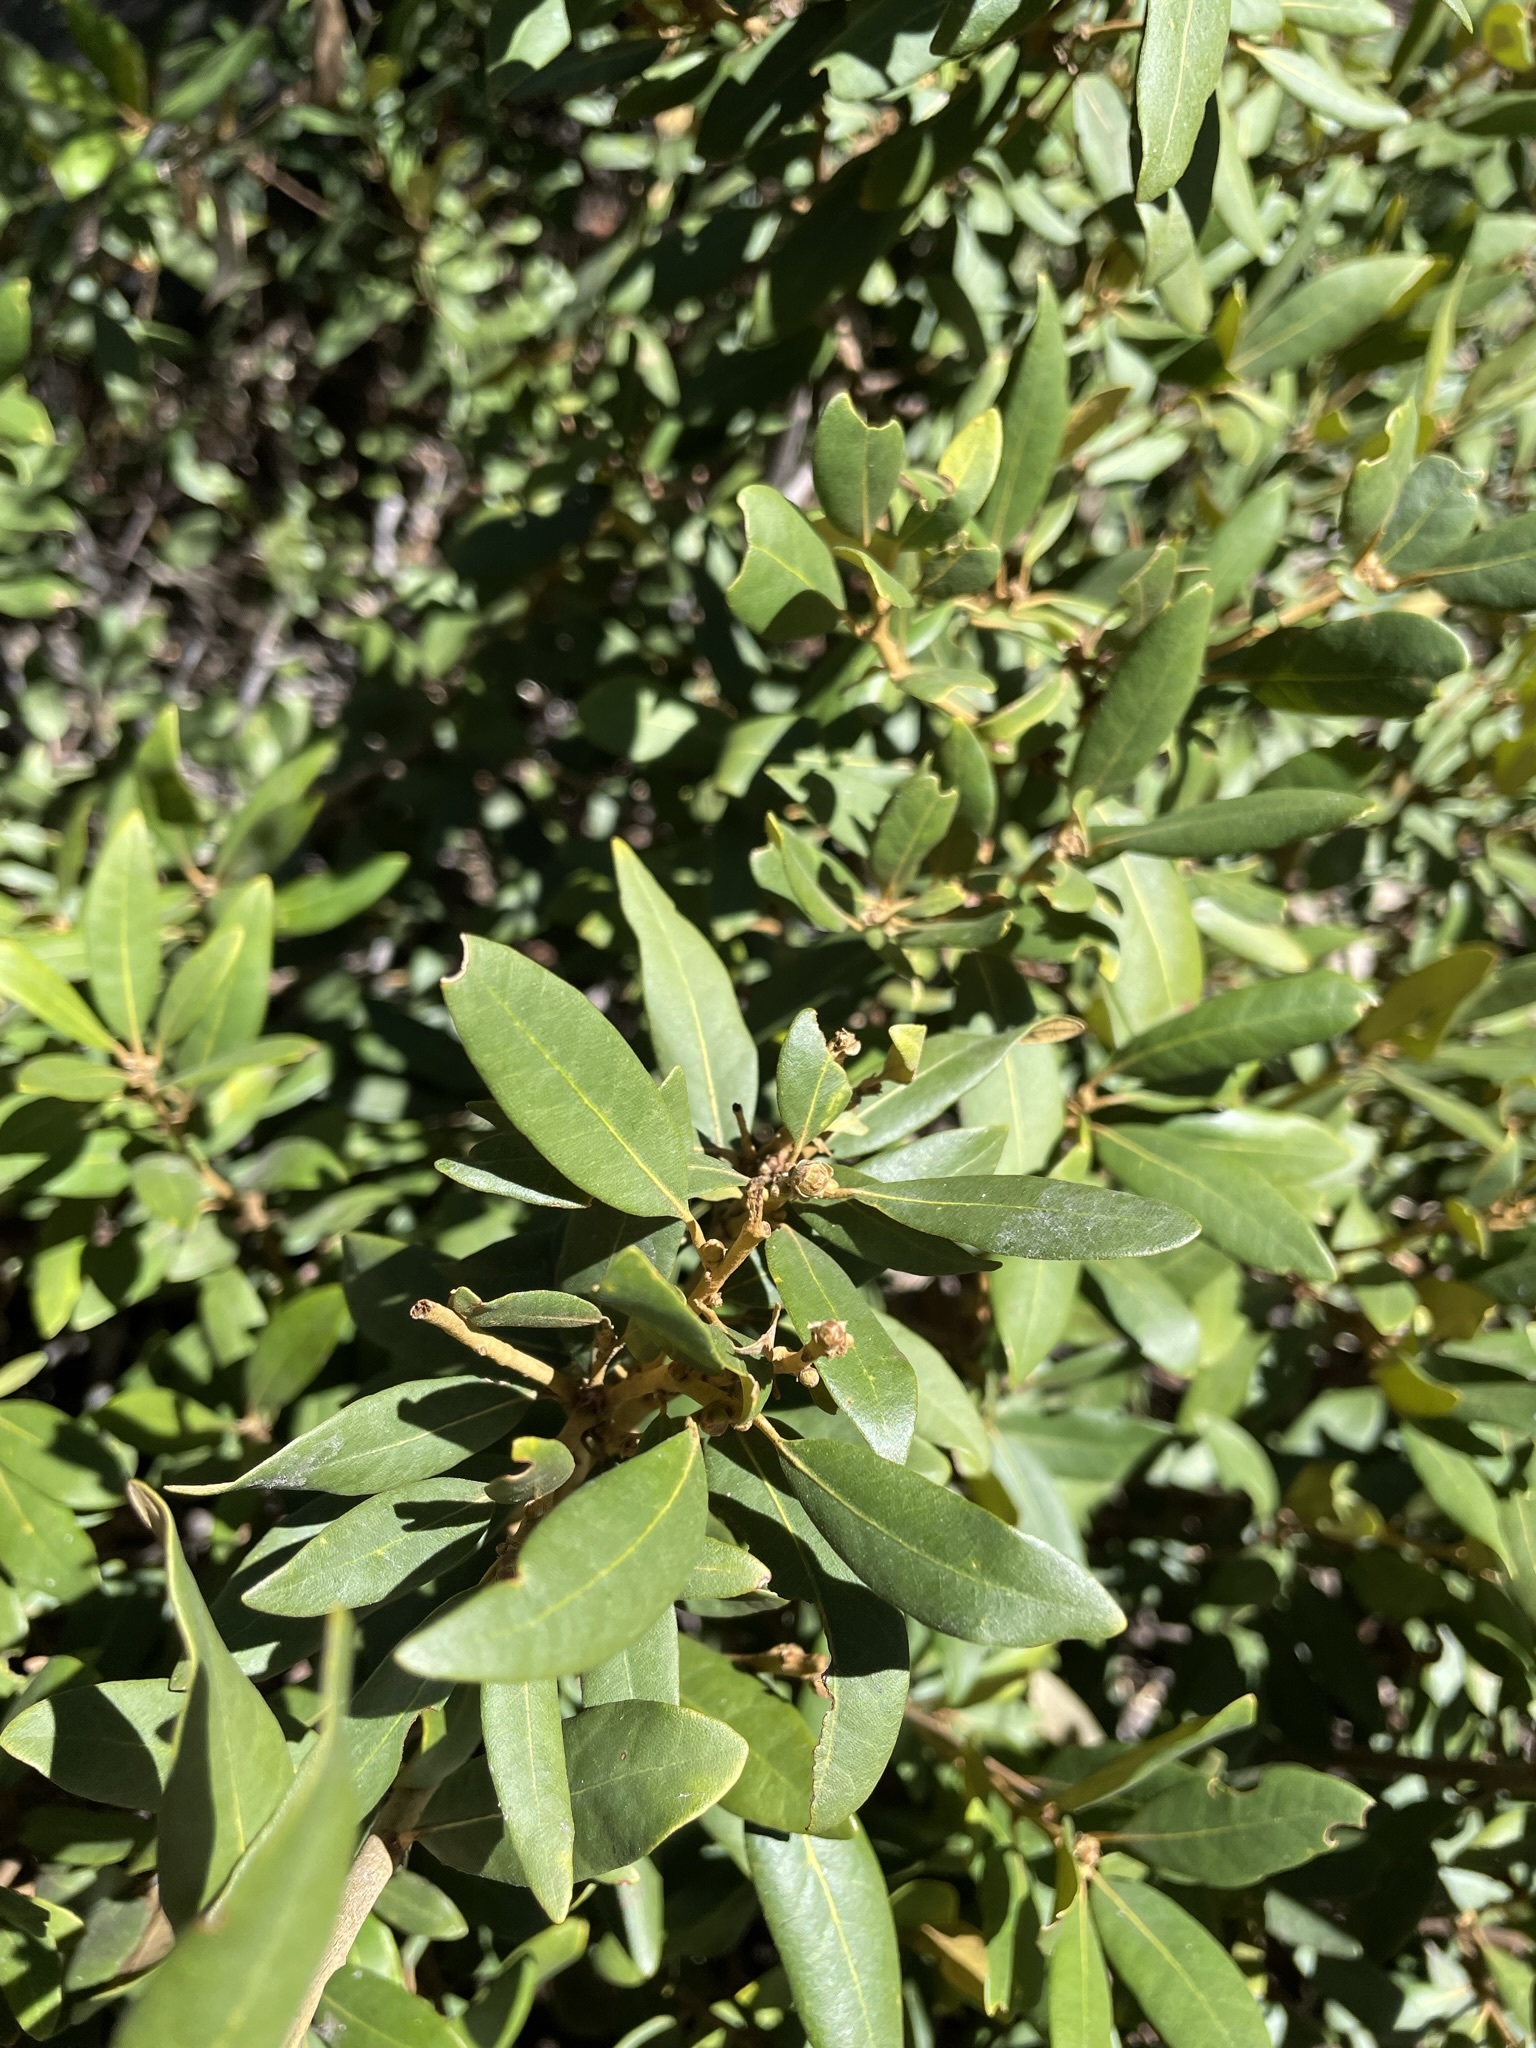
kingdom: Plantae
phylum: Tracheophyta
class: Magnoliopsida
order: Fagales
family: Fagaceae
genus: Chrysolepis
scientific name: Chrysolepis sempervirens
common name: Bush chinquapin
